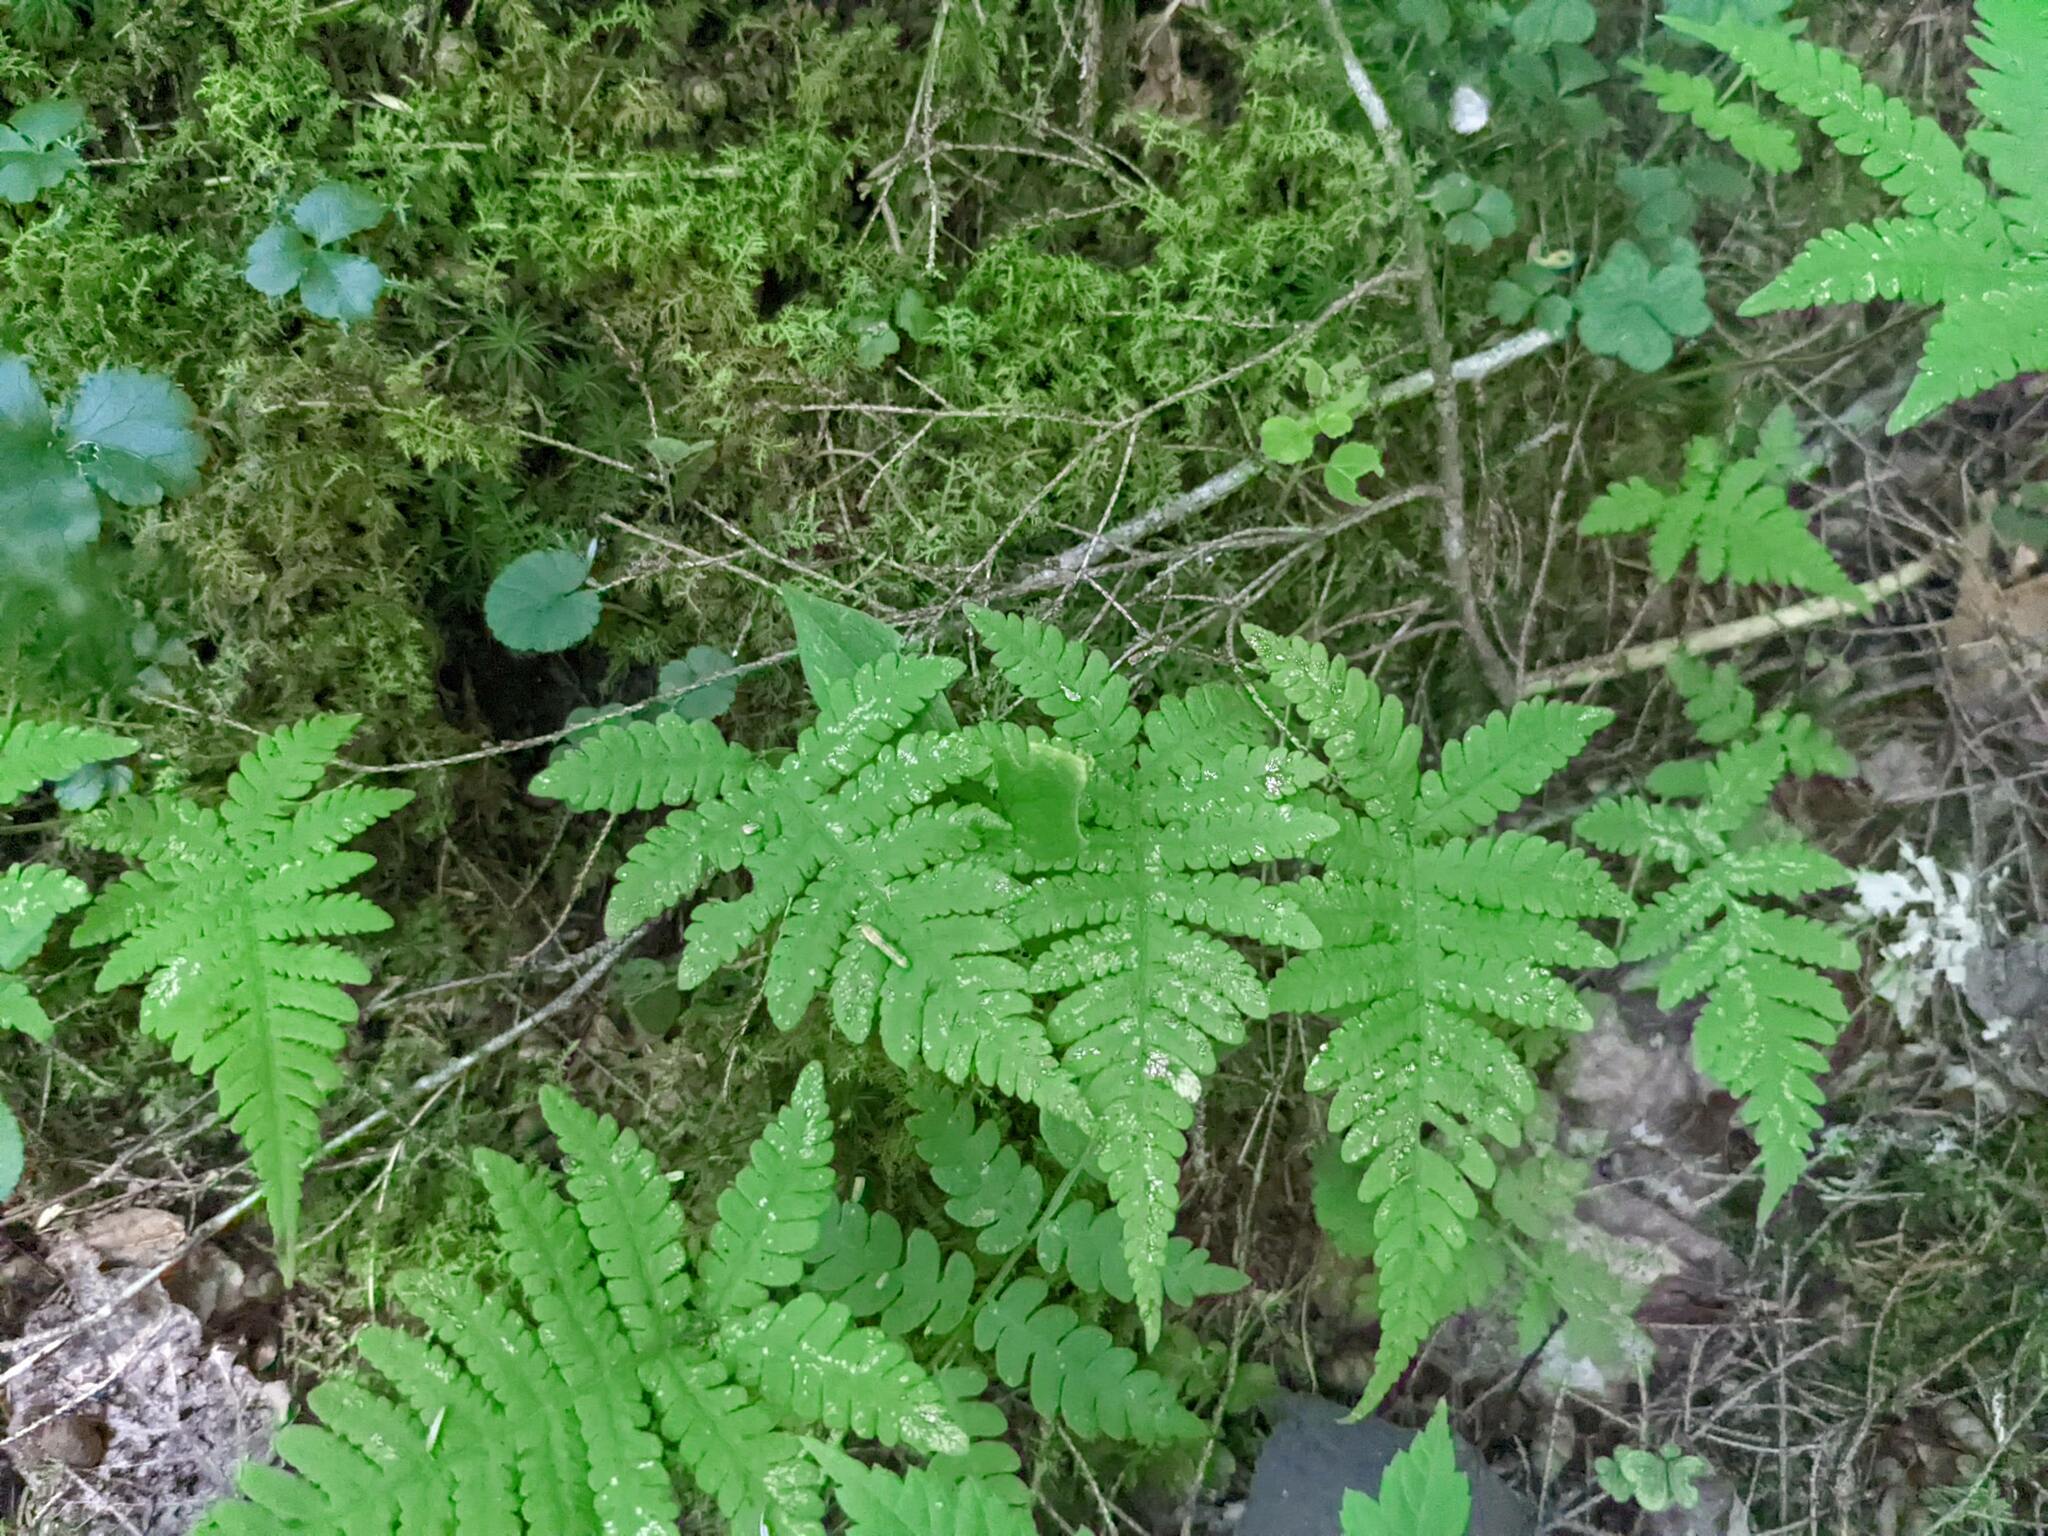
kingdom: Plantae
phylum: Tracheophyta
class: Polypodiopsida
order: Polypodiales
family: Thelypteridaceae
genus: Phegopteris
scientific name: Phegopteris connectilis
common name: Beech fern
